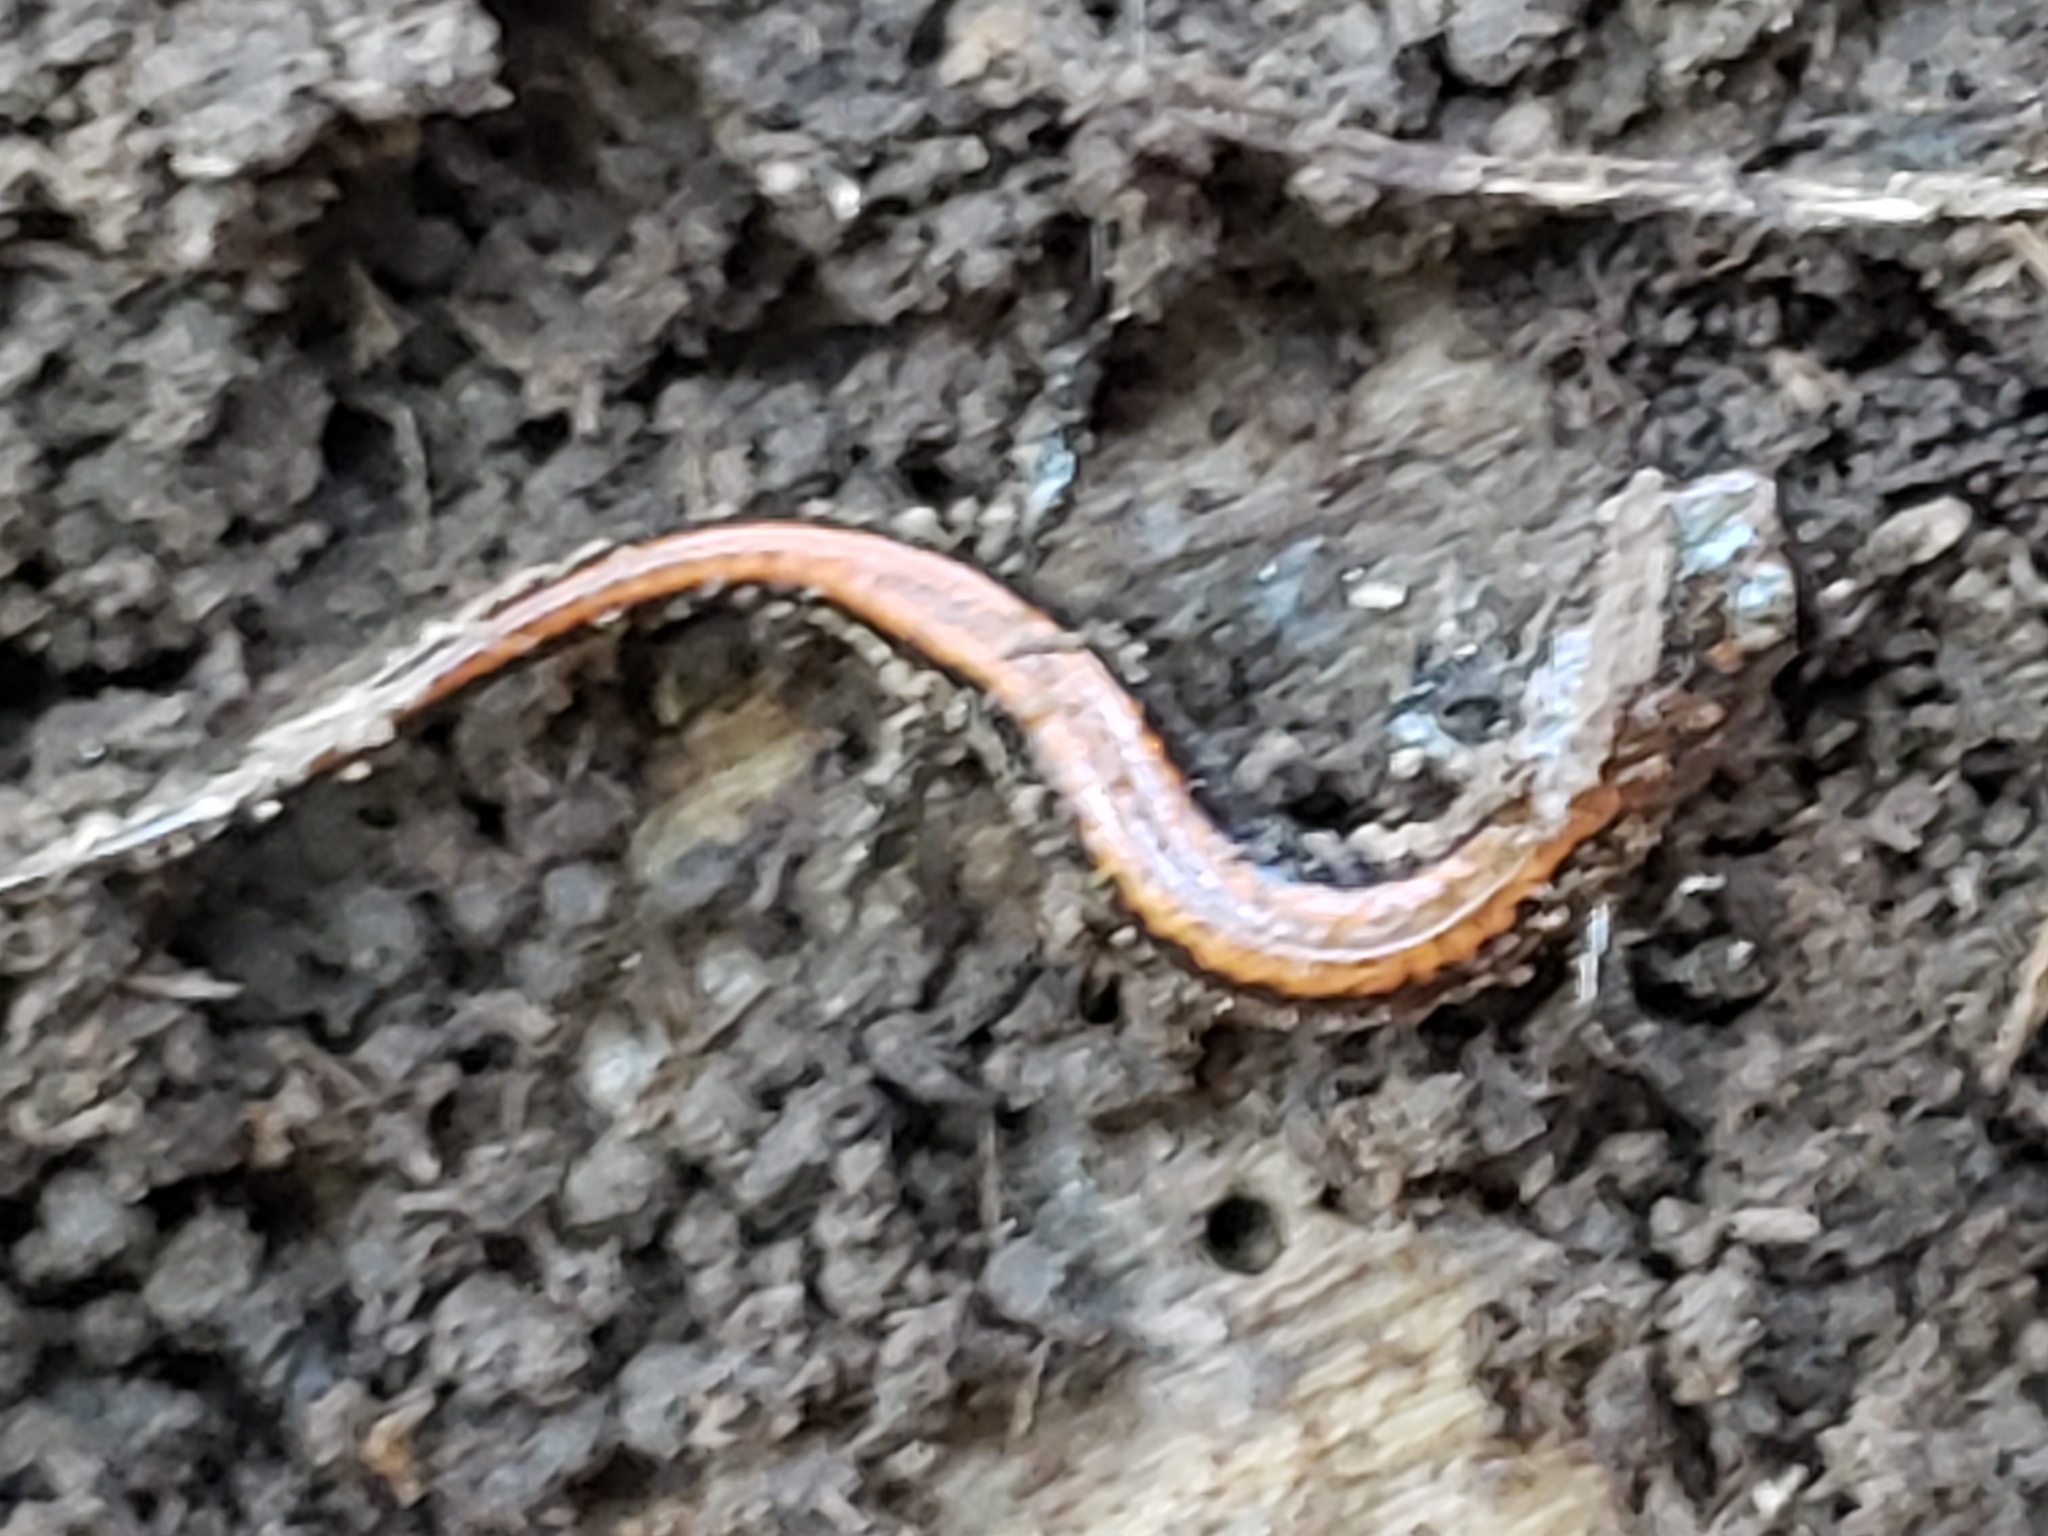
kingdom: Animalia
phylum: Chordata
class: Amphibia
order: Caudata
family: Plethodontidae
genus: Plethodon
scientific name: Plethodon cinereus
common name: Redback salamander
